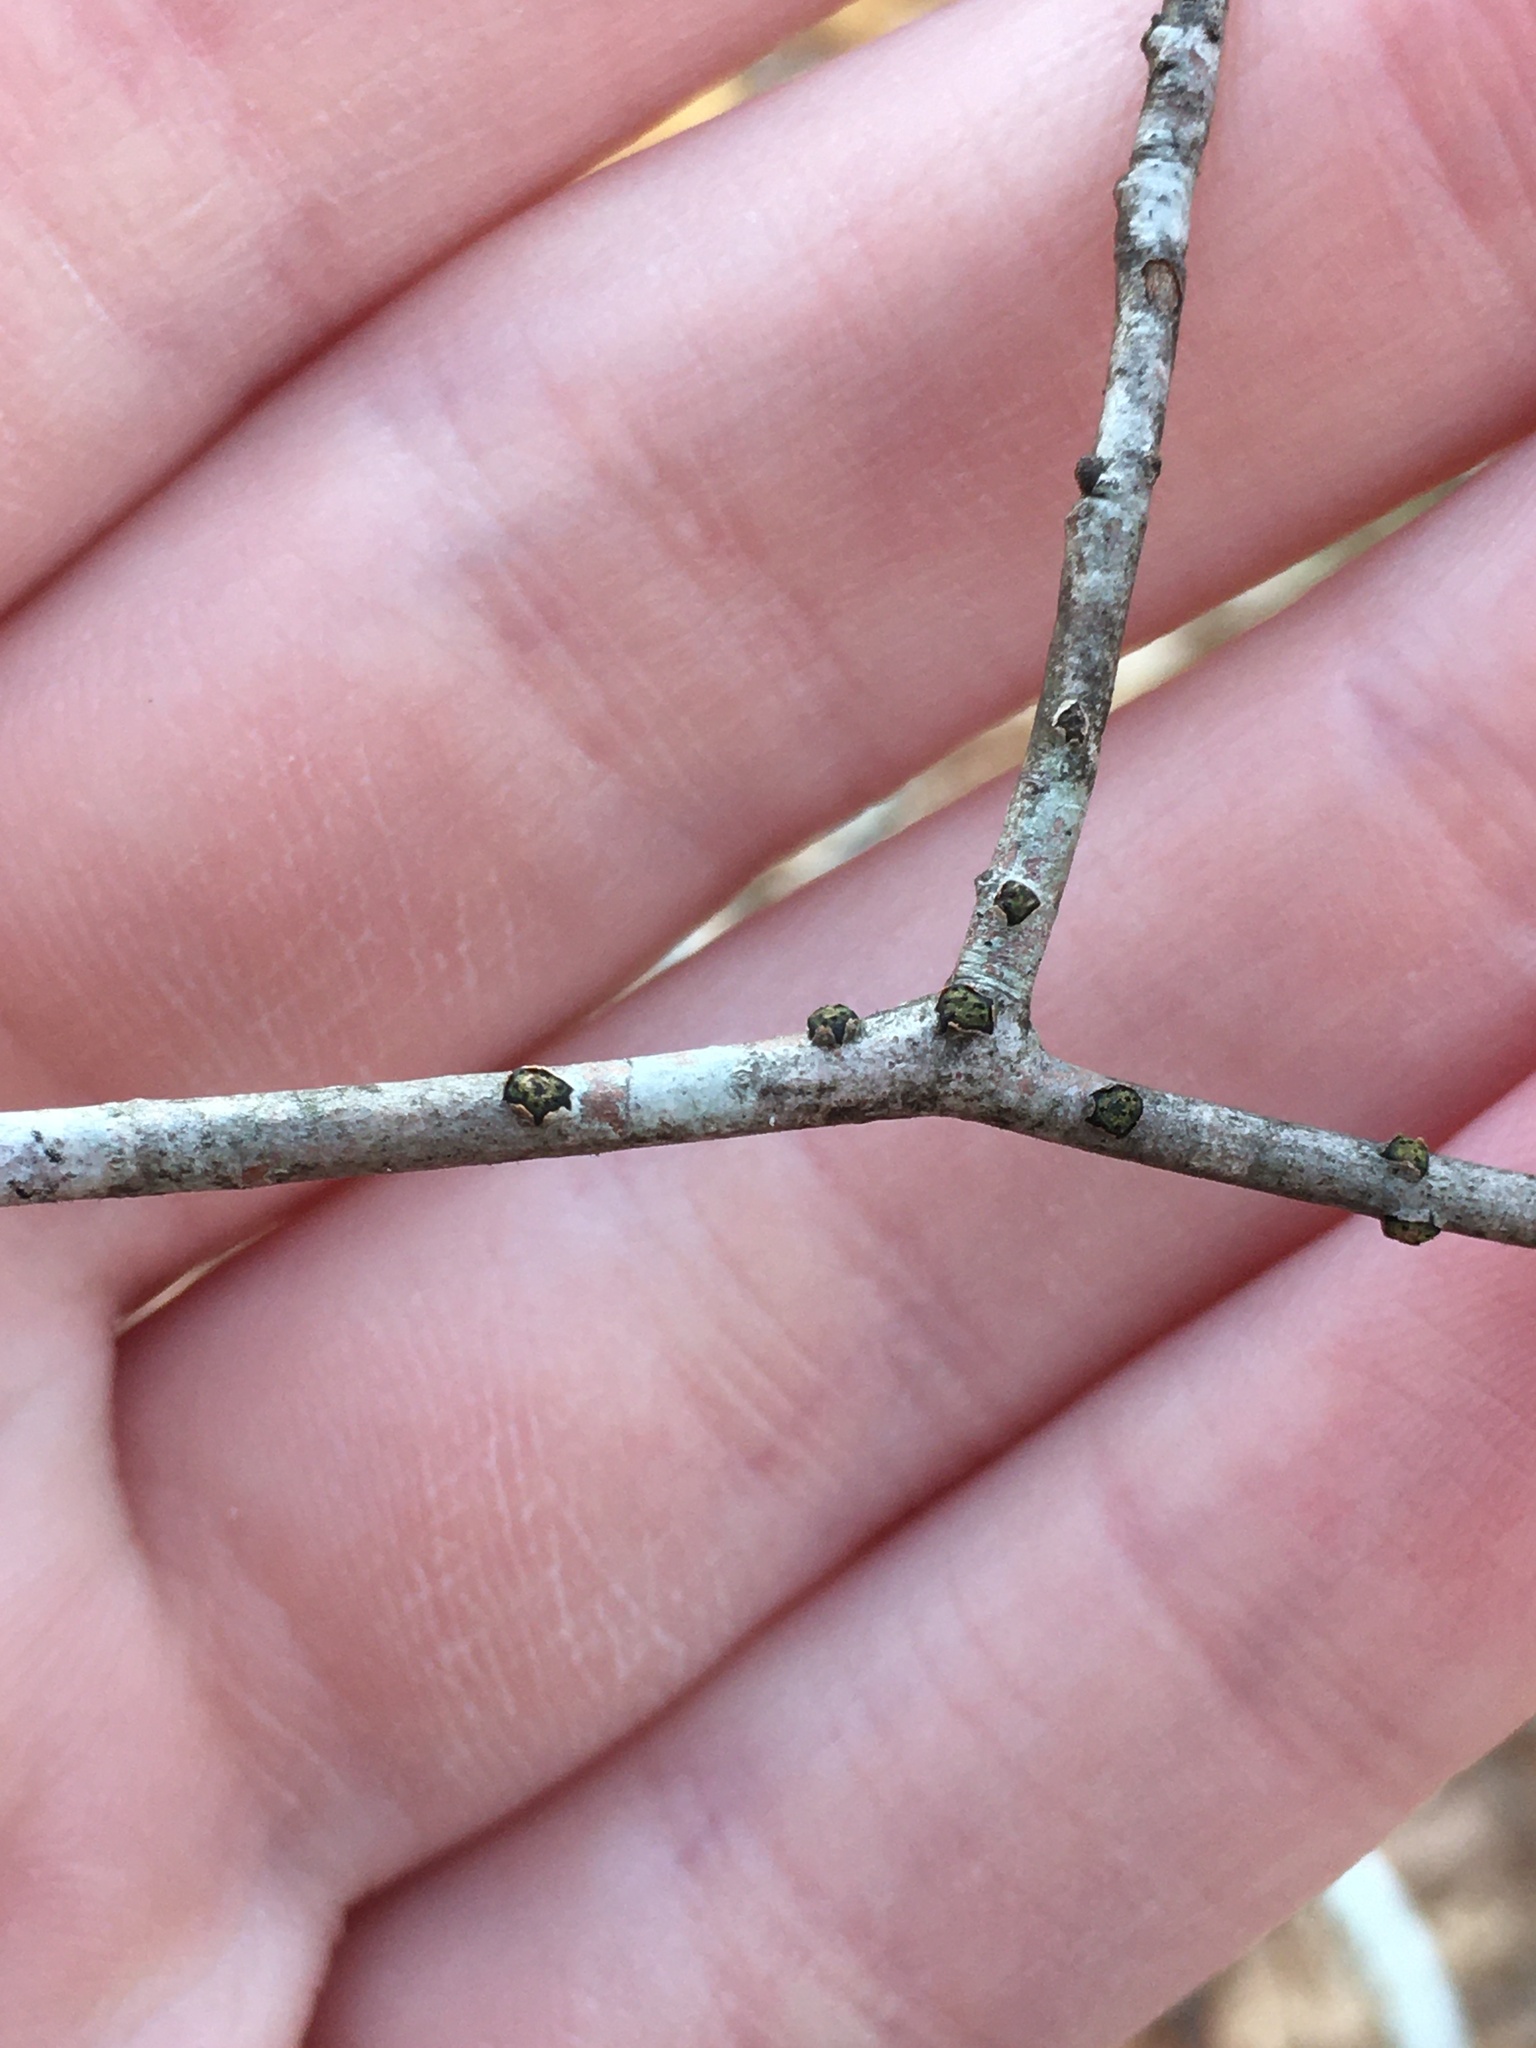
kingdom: Fungi
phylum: Ascomycota
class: Sordariomycetes
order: Xylariales
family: Diatrypaceae
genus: Diatrype
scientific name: Diatrype virescens
